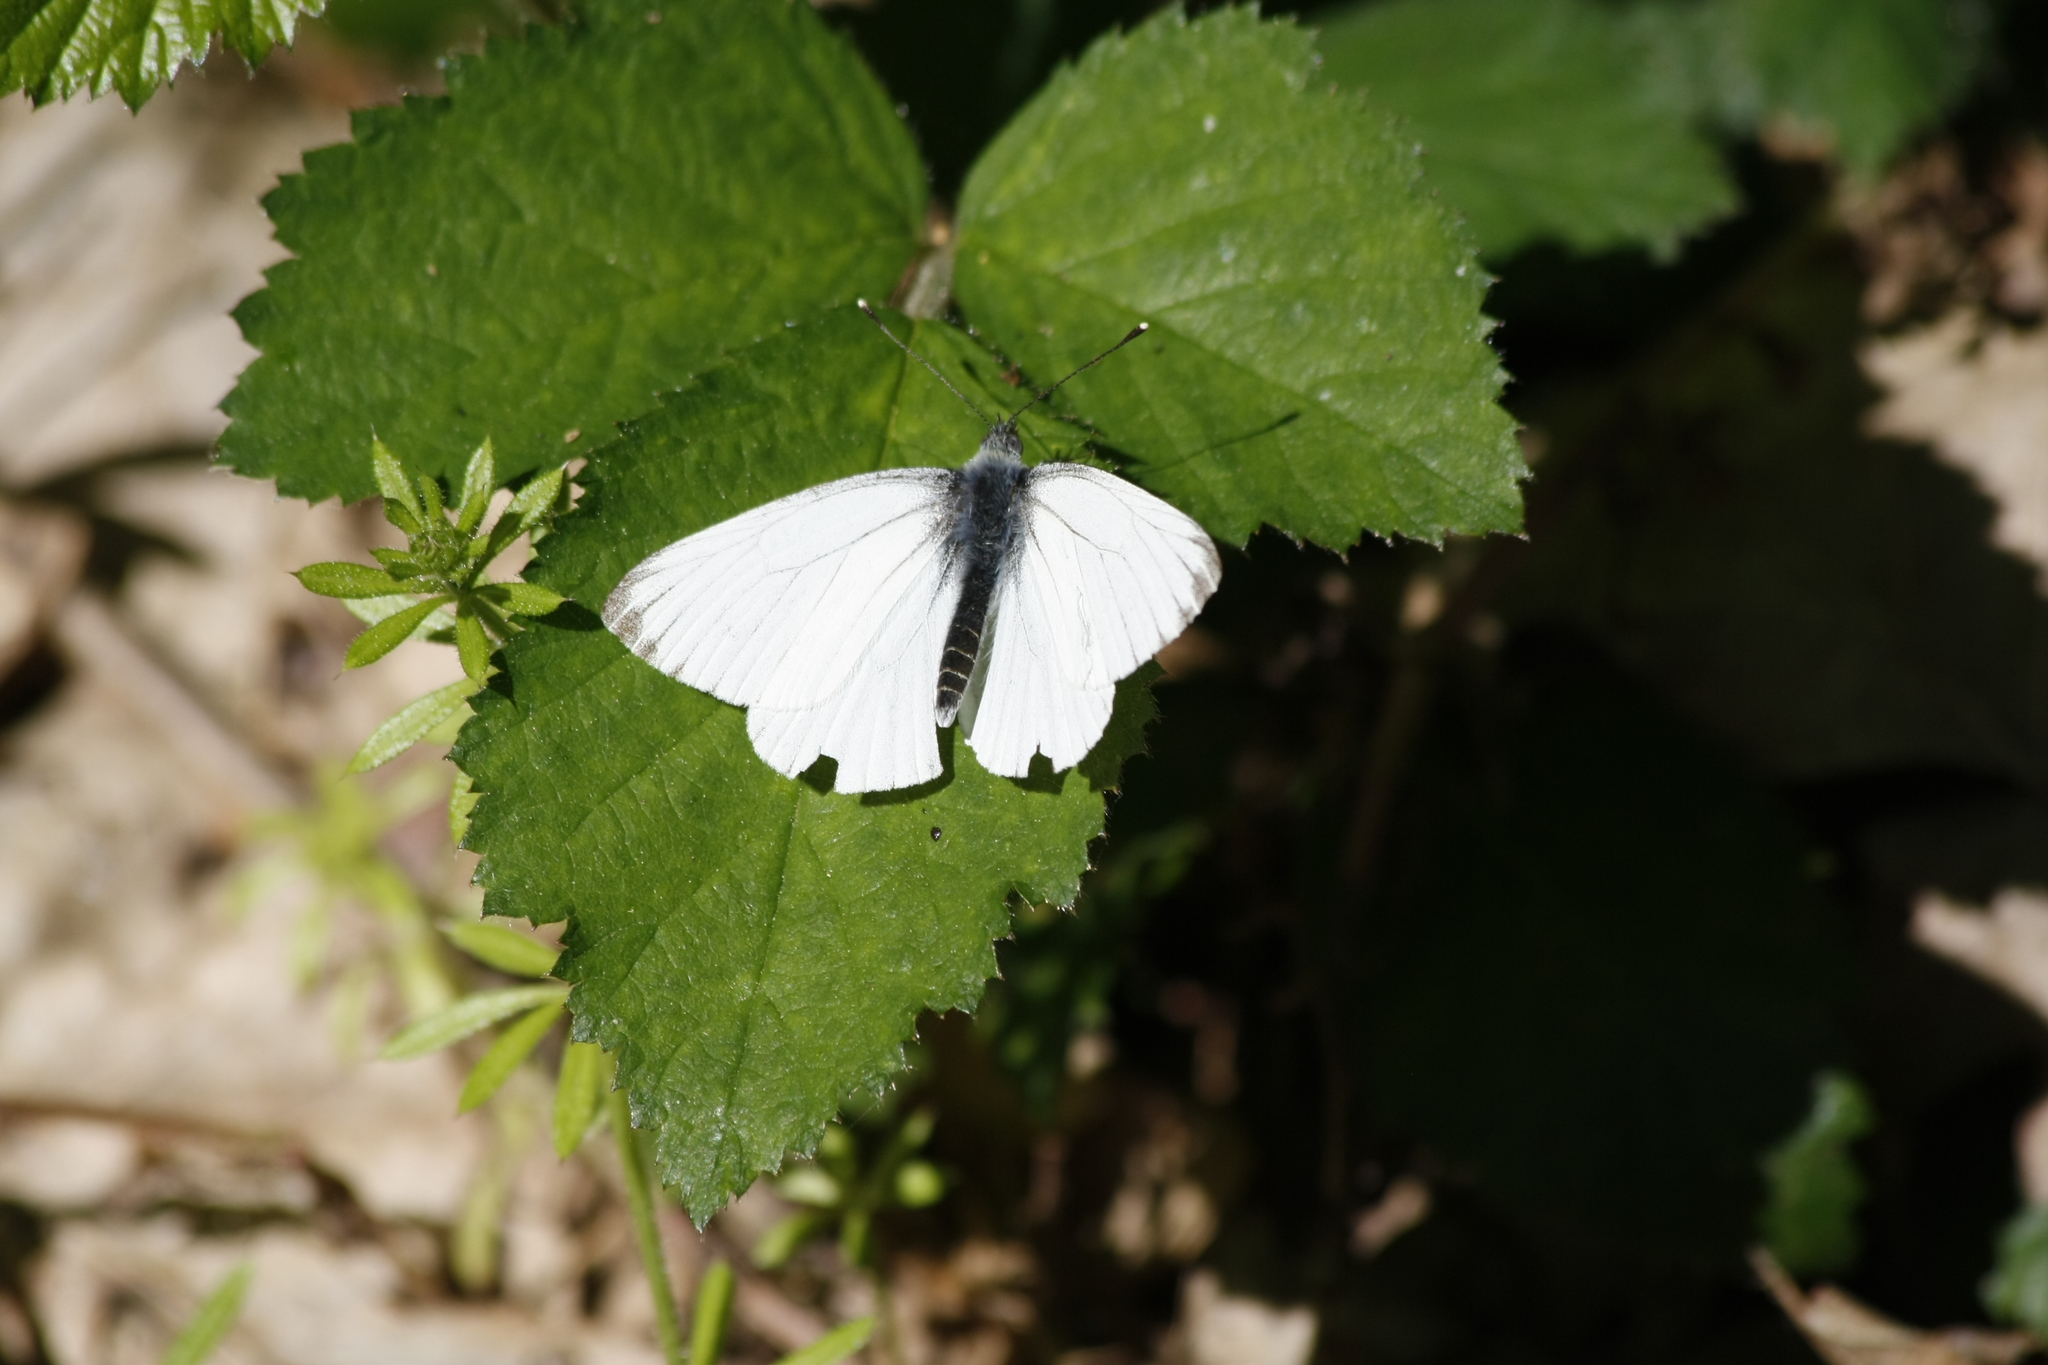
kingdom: Animalia
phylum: Arthropoda
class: Insecta
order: Lepidoptera
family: Pieridae
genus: Pieris
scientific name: Pieris napi
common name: Green-veined white
